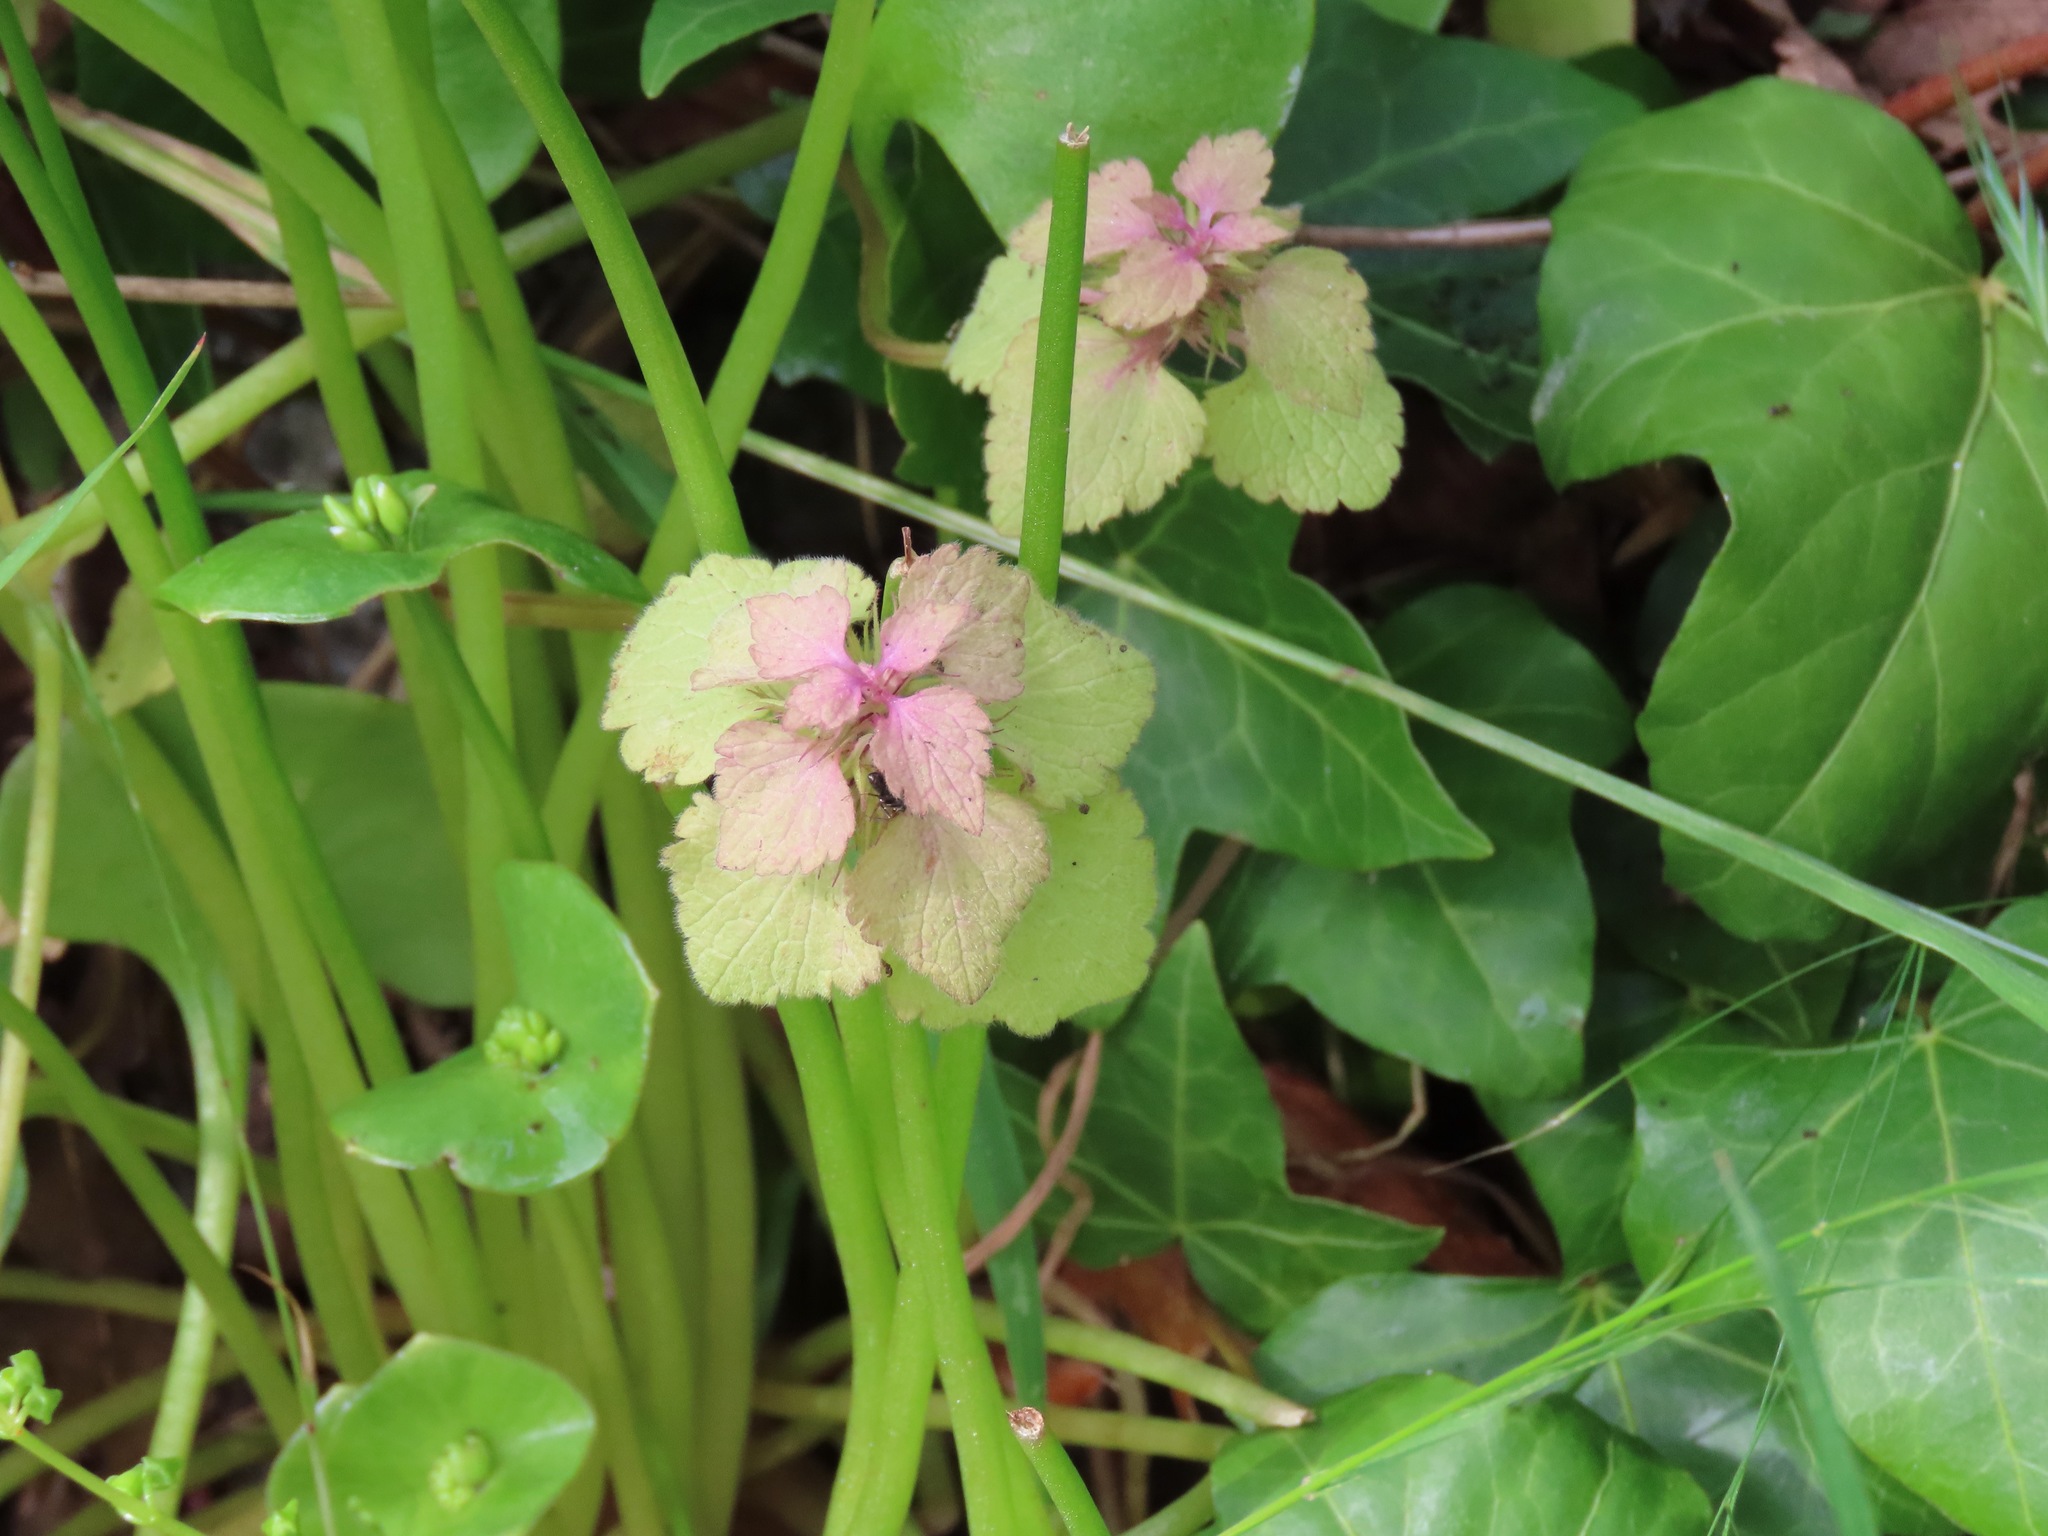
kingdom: Plantae
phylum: Tracheophyta
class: Magnoliopsida
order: Lamiales
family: Lamiaceae
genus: Lamium
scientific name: Lamium purpureum
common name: Red dead-nettle
